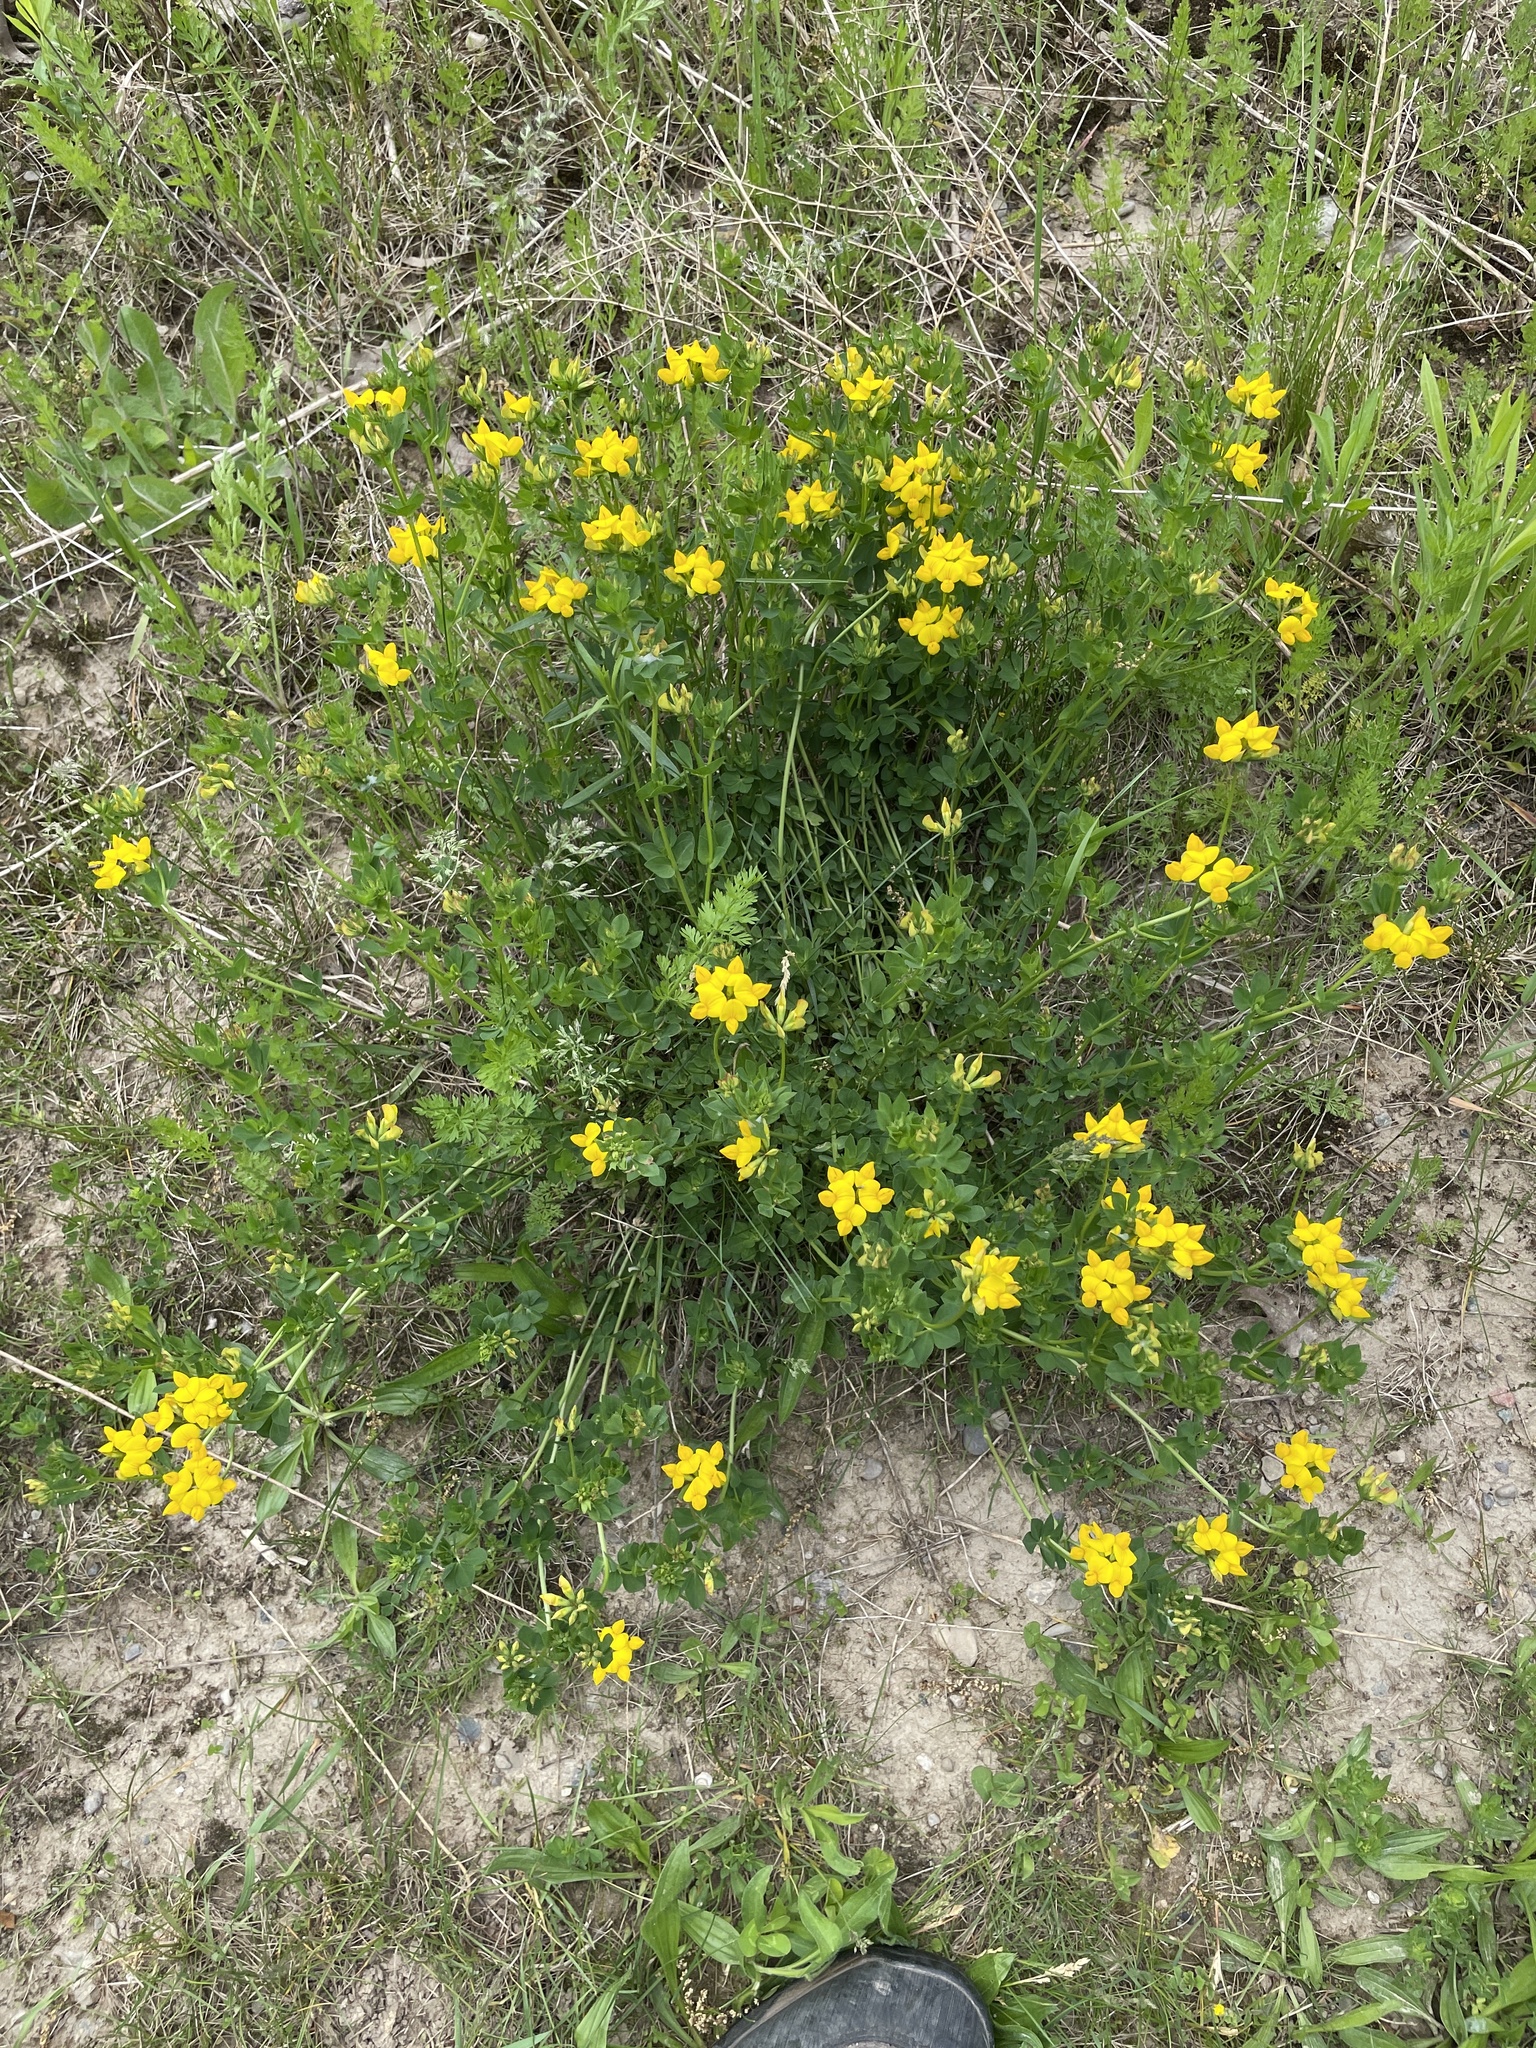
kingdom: Plantae
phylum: Tracheophyta
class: Magnoliopsida
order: Fabales
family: Fabaceae
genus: Lotus
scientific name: Lotus corniculatus
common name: Common bird's-foot-trefoil
